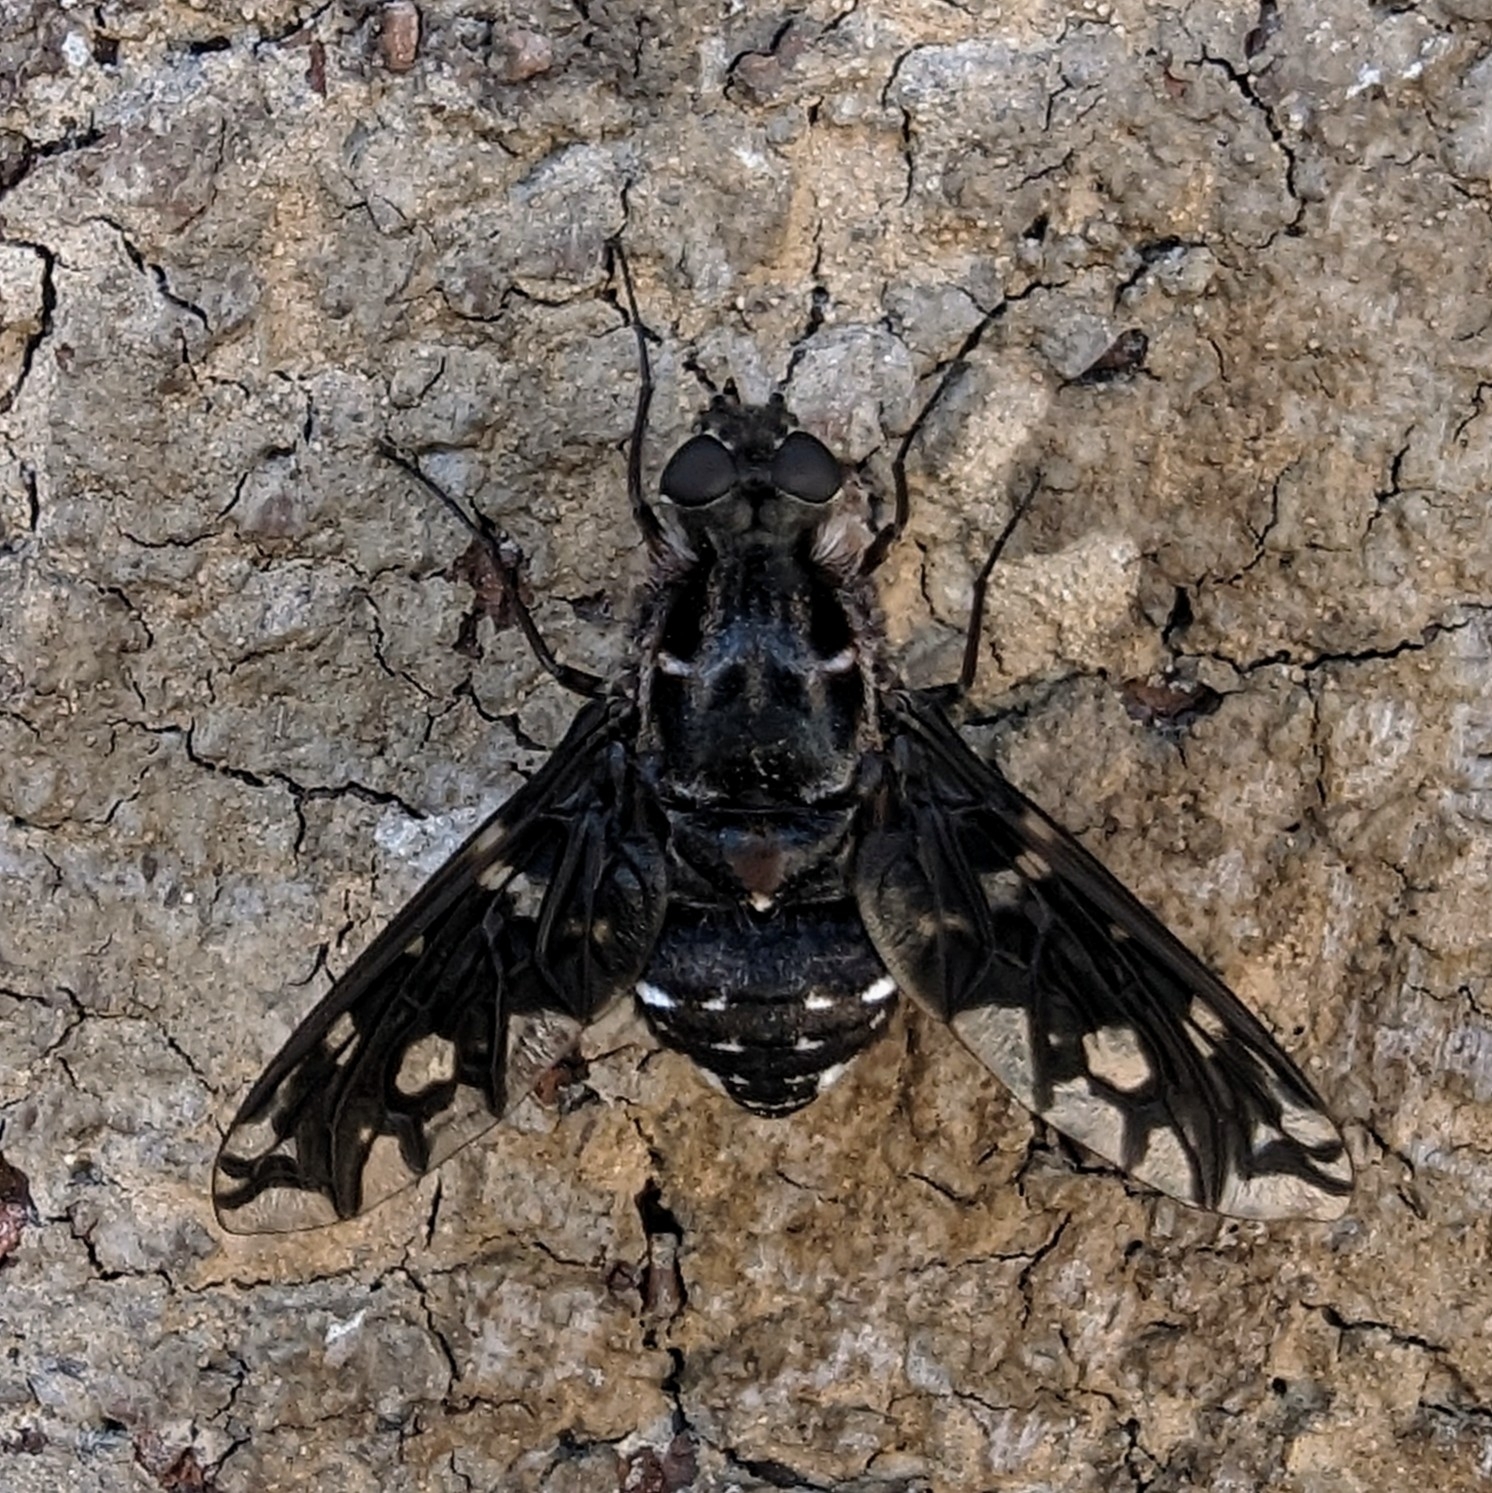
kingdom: Animalia
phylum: Arthropoda
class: Insecta
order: Diptera
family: Bombyliidae
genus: Xenox
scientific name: Xenox tigrinus
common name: Tiger bee fly
